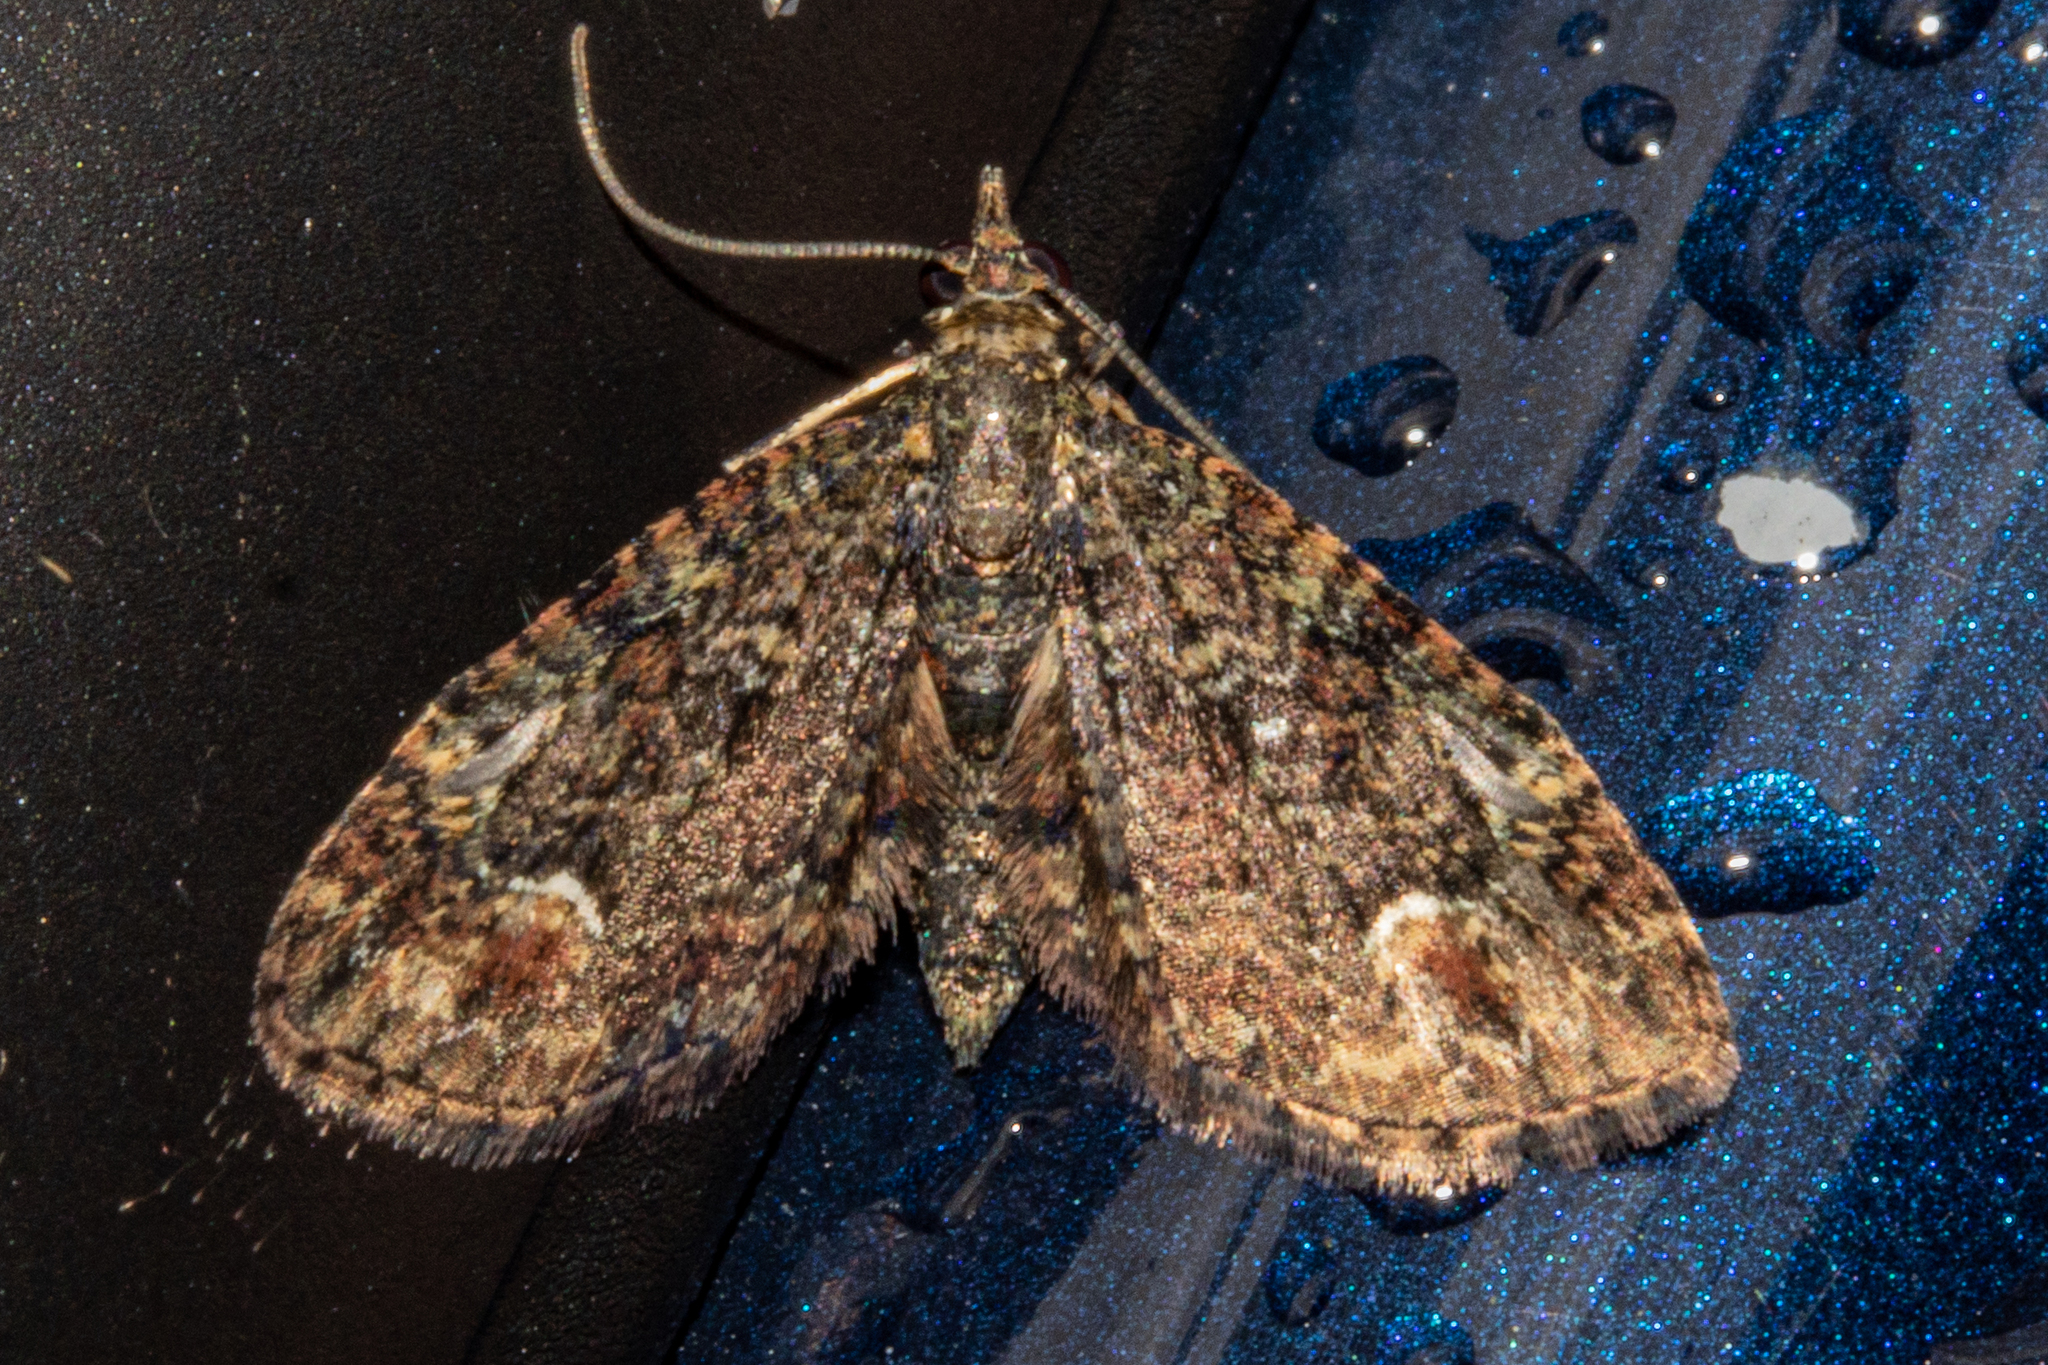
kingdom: Animalia
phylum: Arthropoda
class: Insecta
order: Lepidoptera
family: Geometridae
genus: Pasiphilodes
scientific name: Pasiphilodes testulata
